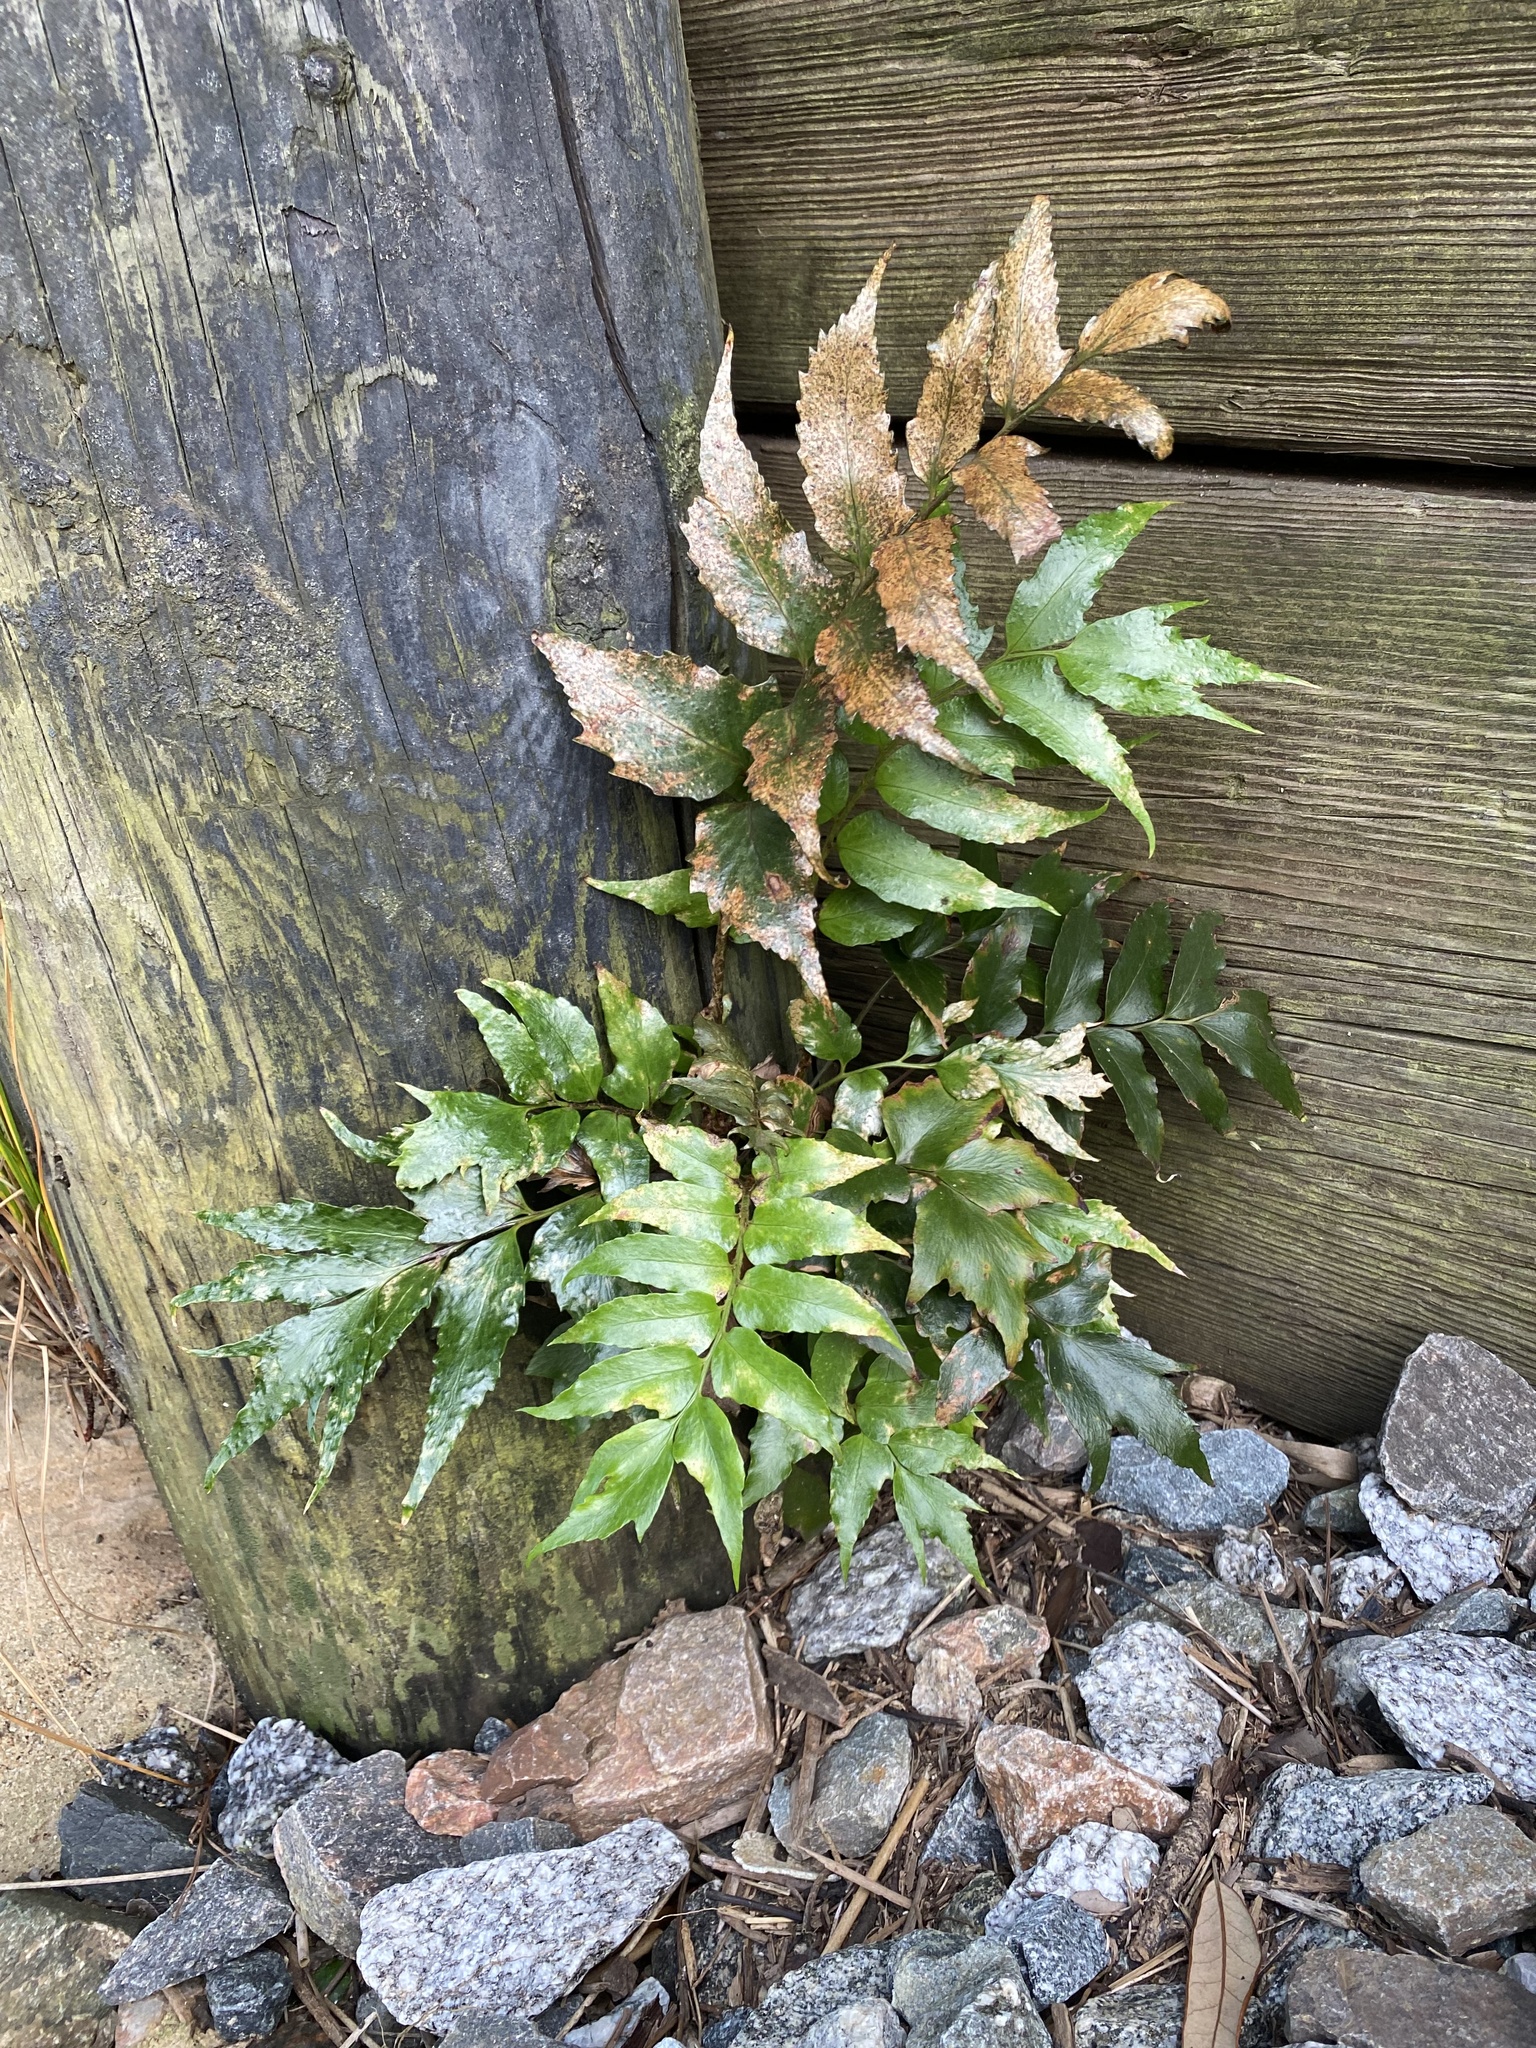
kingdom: Plantae
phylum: Tracheophyta
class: Polypodiopsida
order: Polypodiales
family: Dryopteridaceae
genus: Cyrtomium
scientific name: Cyrtomium falcatum
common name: House holly-fern
